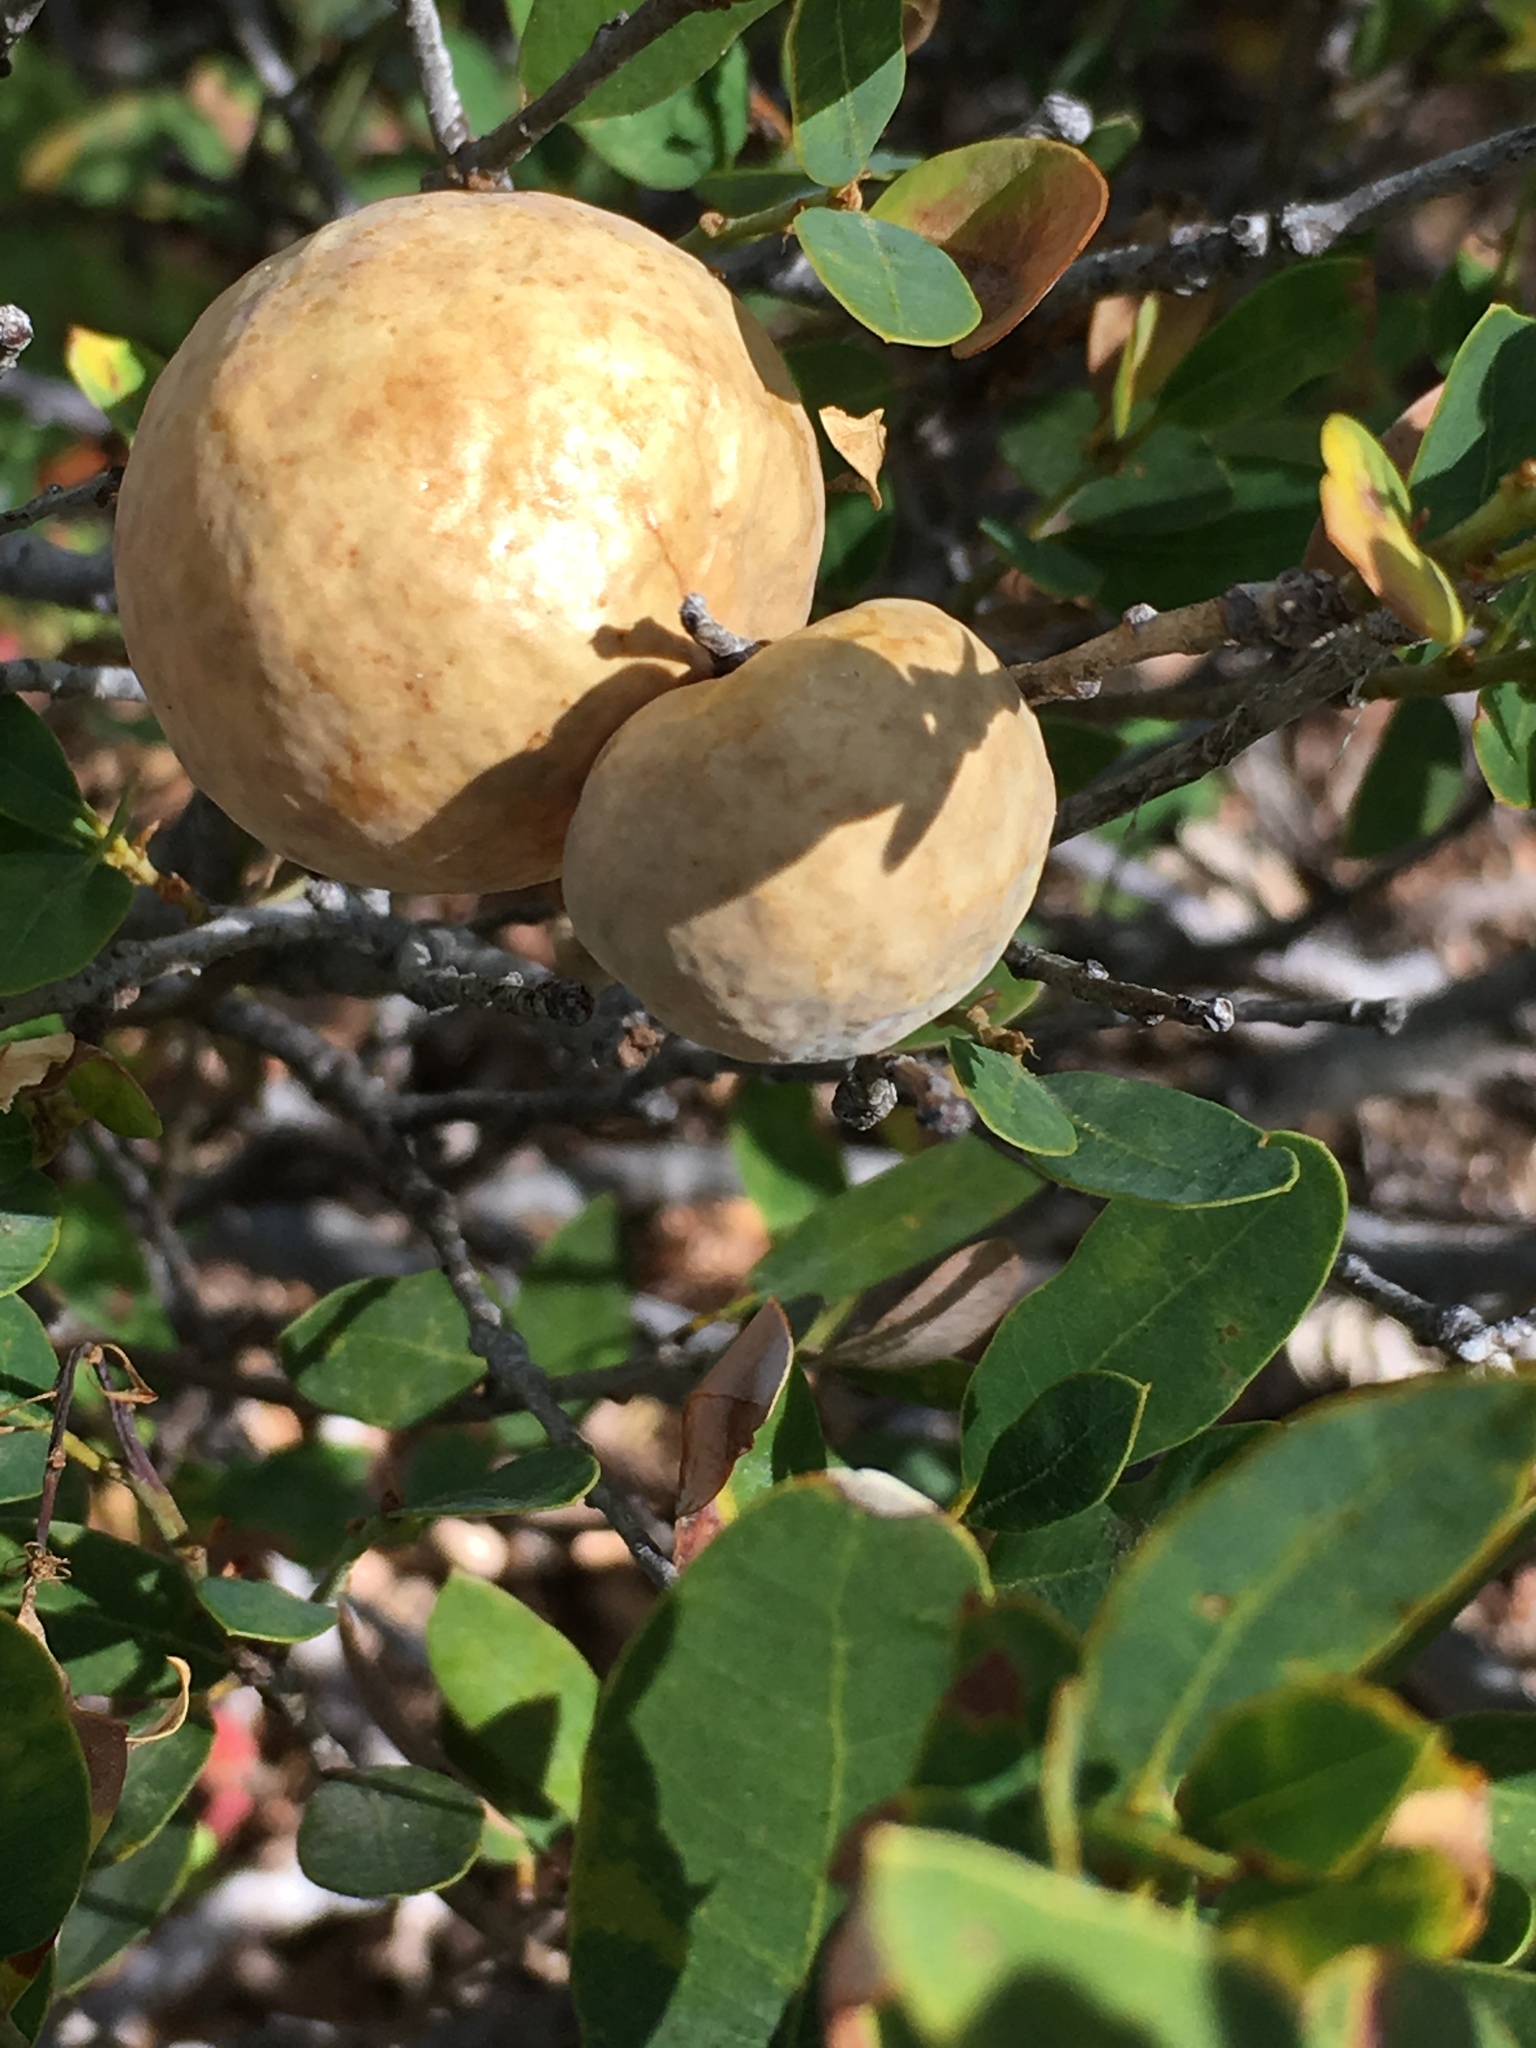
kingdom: Animalia
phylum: Arthropoda
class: Insecta
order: Hymenoptera
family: Cynipidae
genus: Andricus
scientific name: Andricus quercuscalifornicus
